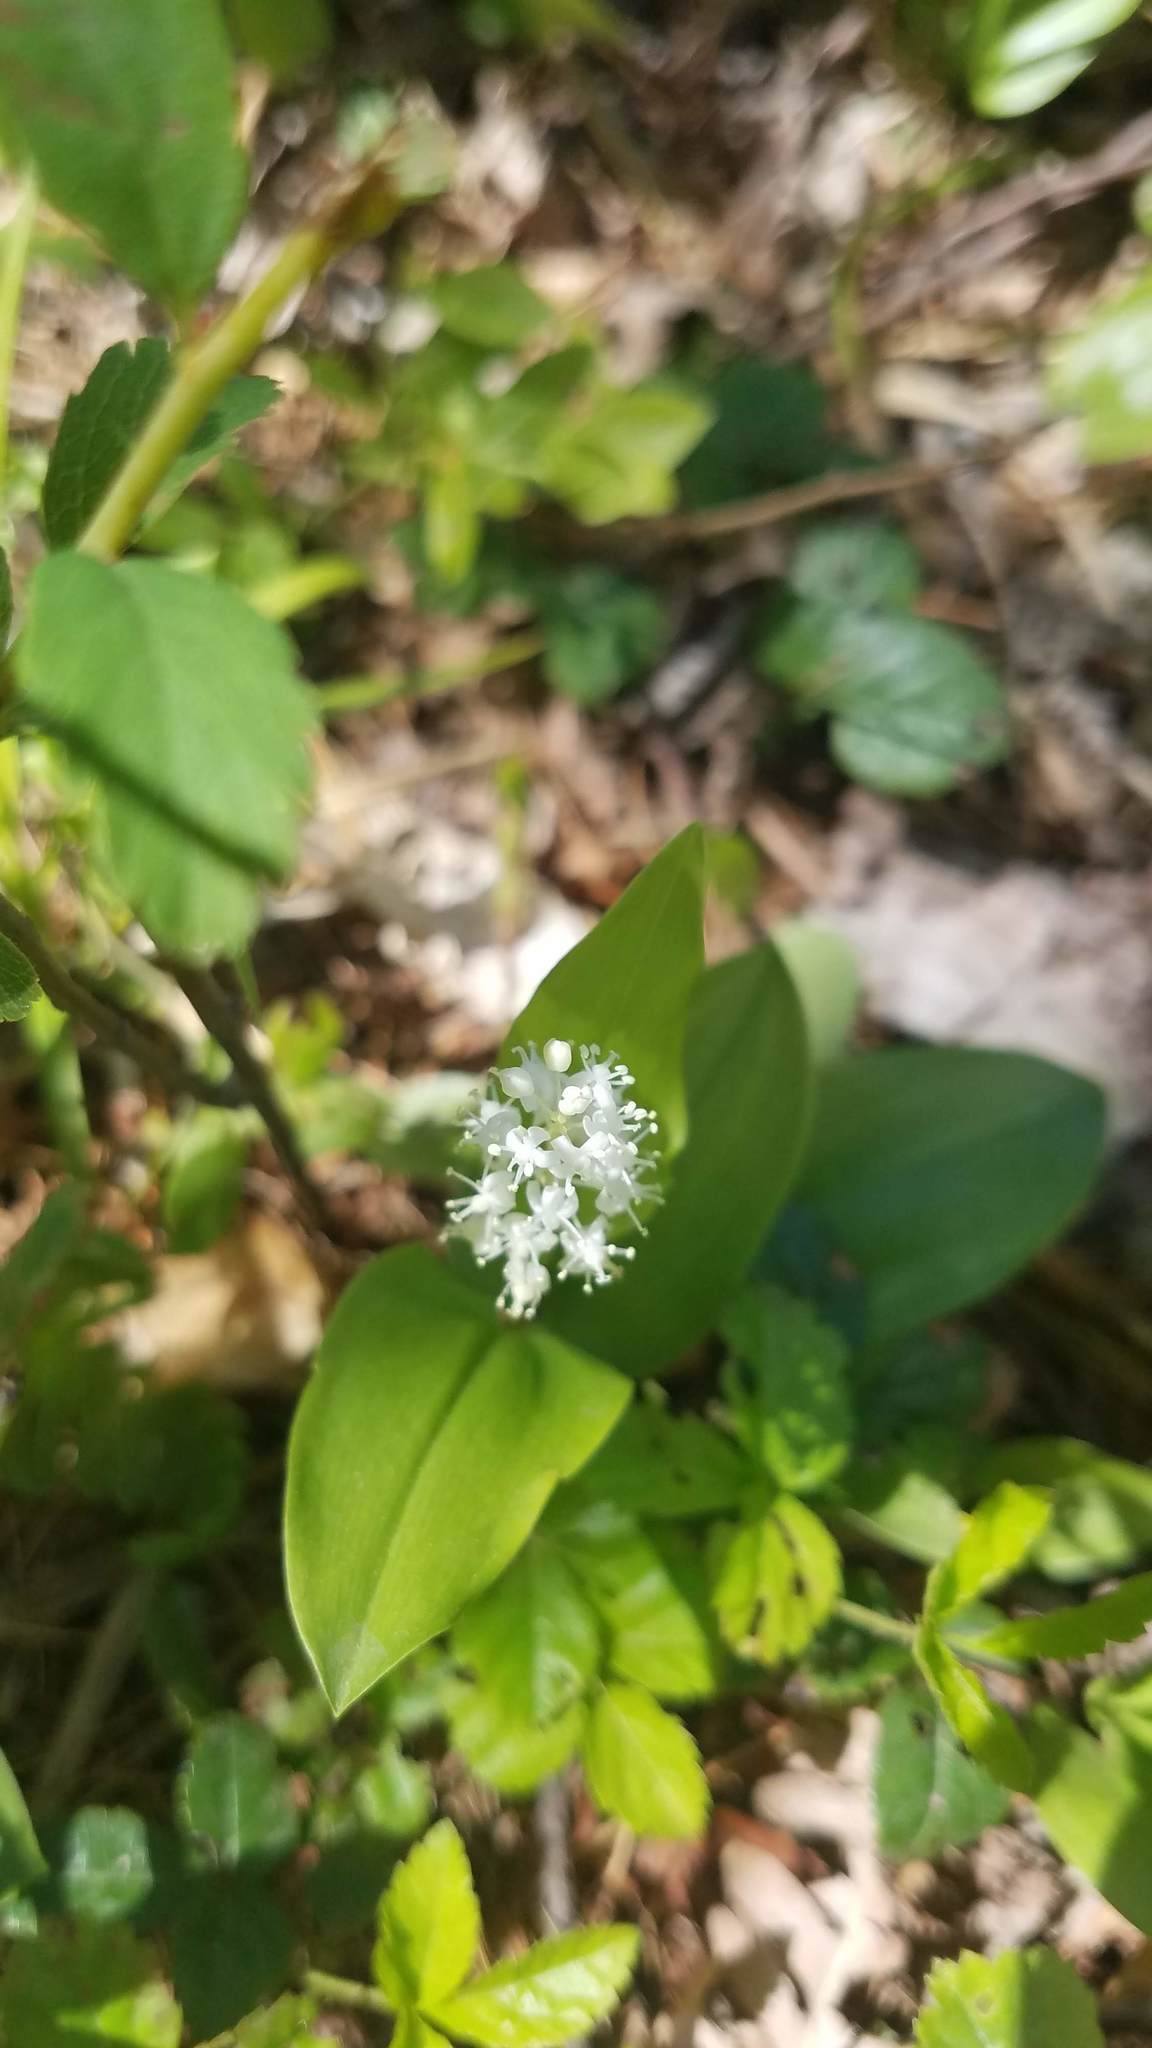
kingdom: Plantae
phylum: Tracheophyta
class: Liliopsida
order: Asparagales
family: Asparagaceae
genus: Maianthemum
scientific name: Maianthemum canadense
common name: False lily-of-the-valley
